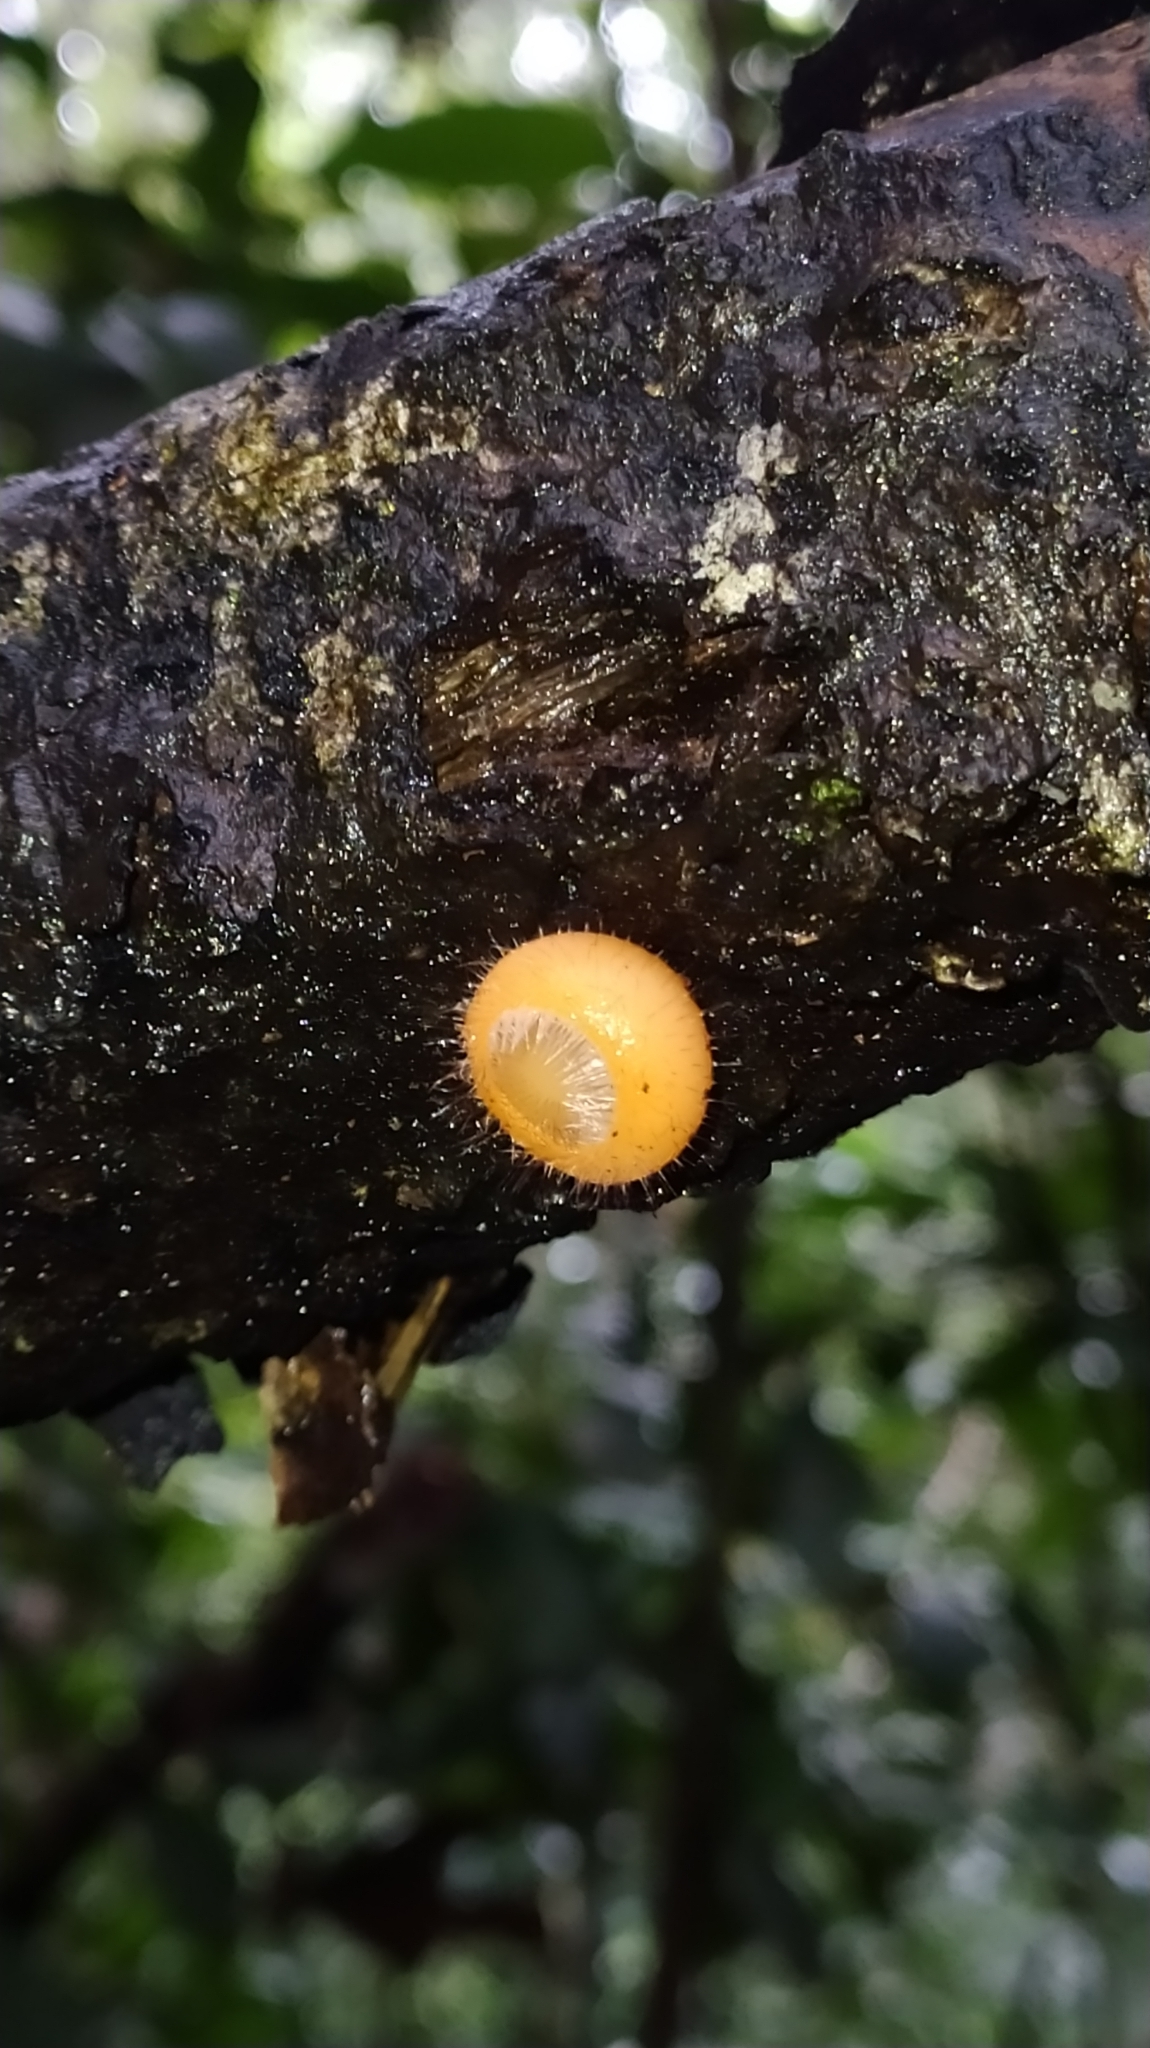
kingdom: Fungi
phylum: Ascomycota
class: Pezizomycetes
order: Pezizales
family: Sarcoscyphaceae
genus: Cookeina
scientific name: Cookeina tricholoma
